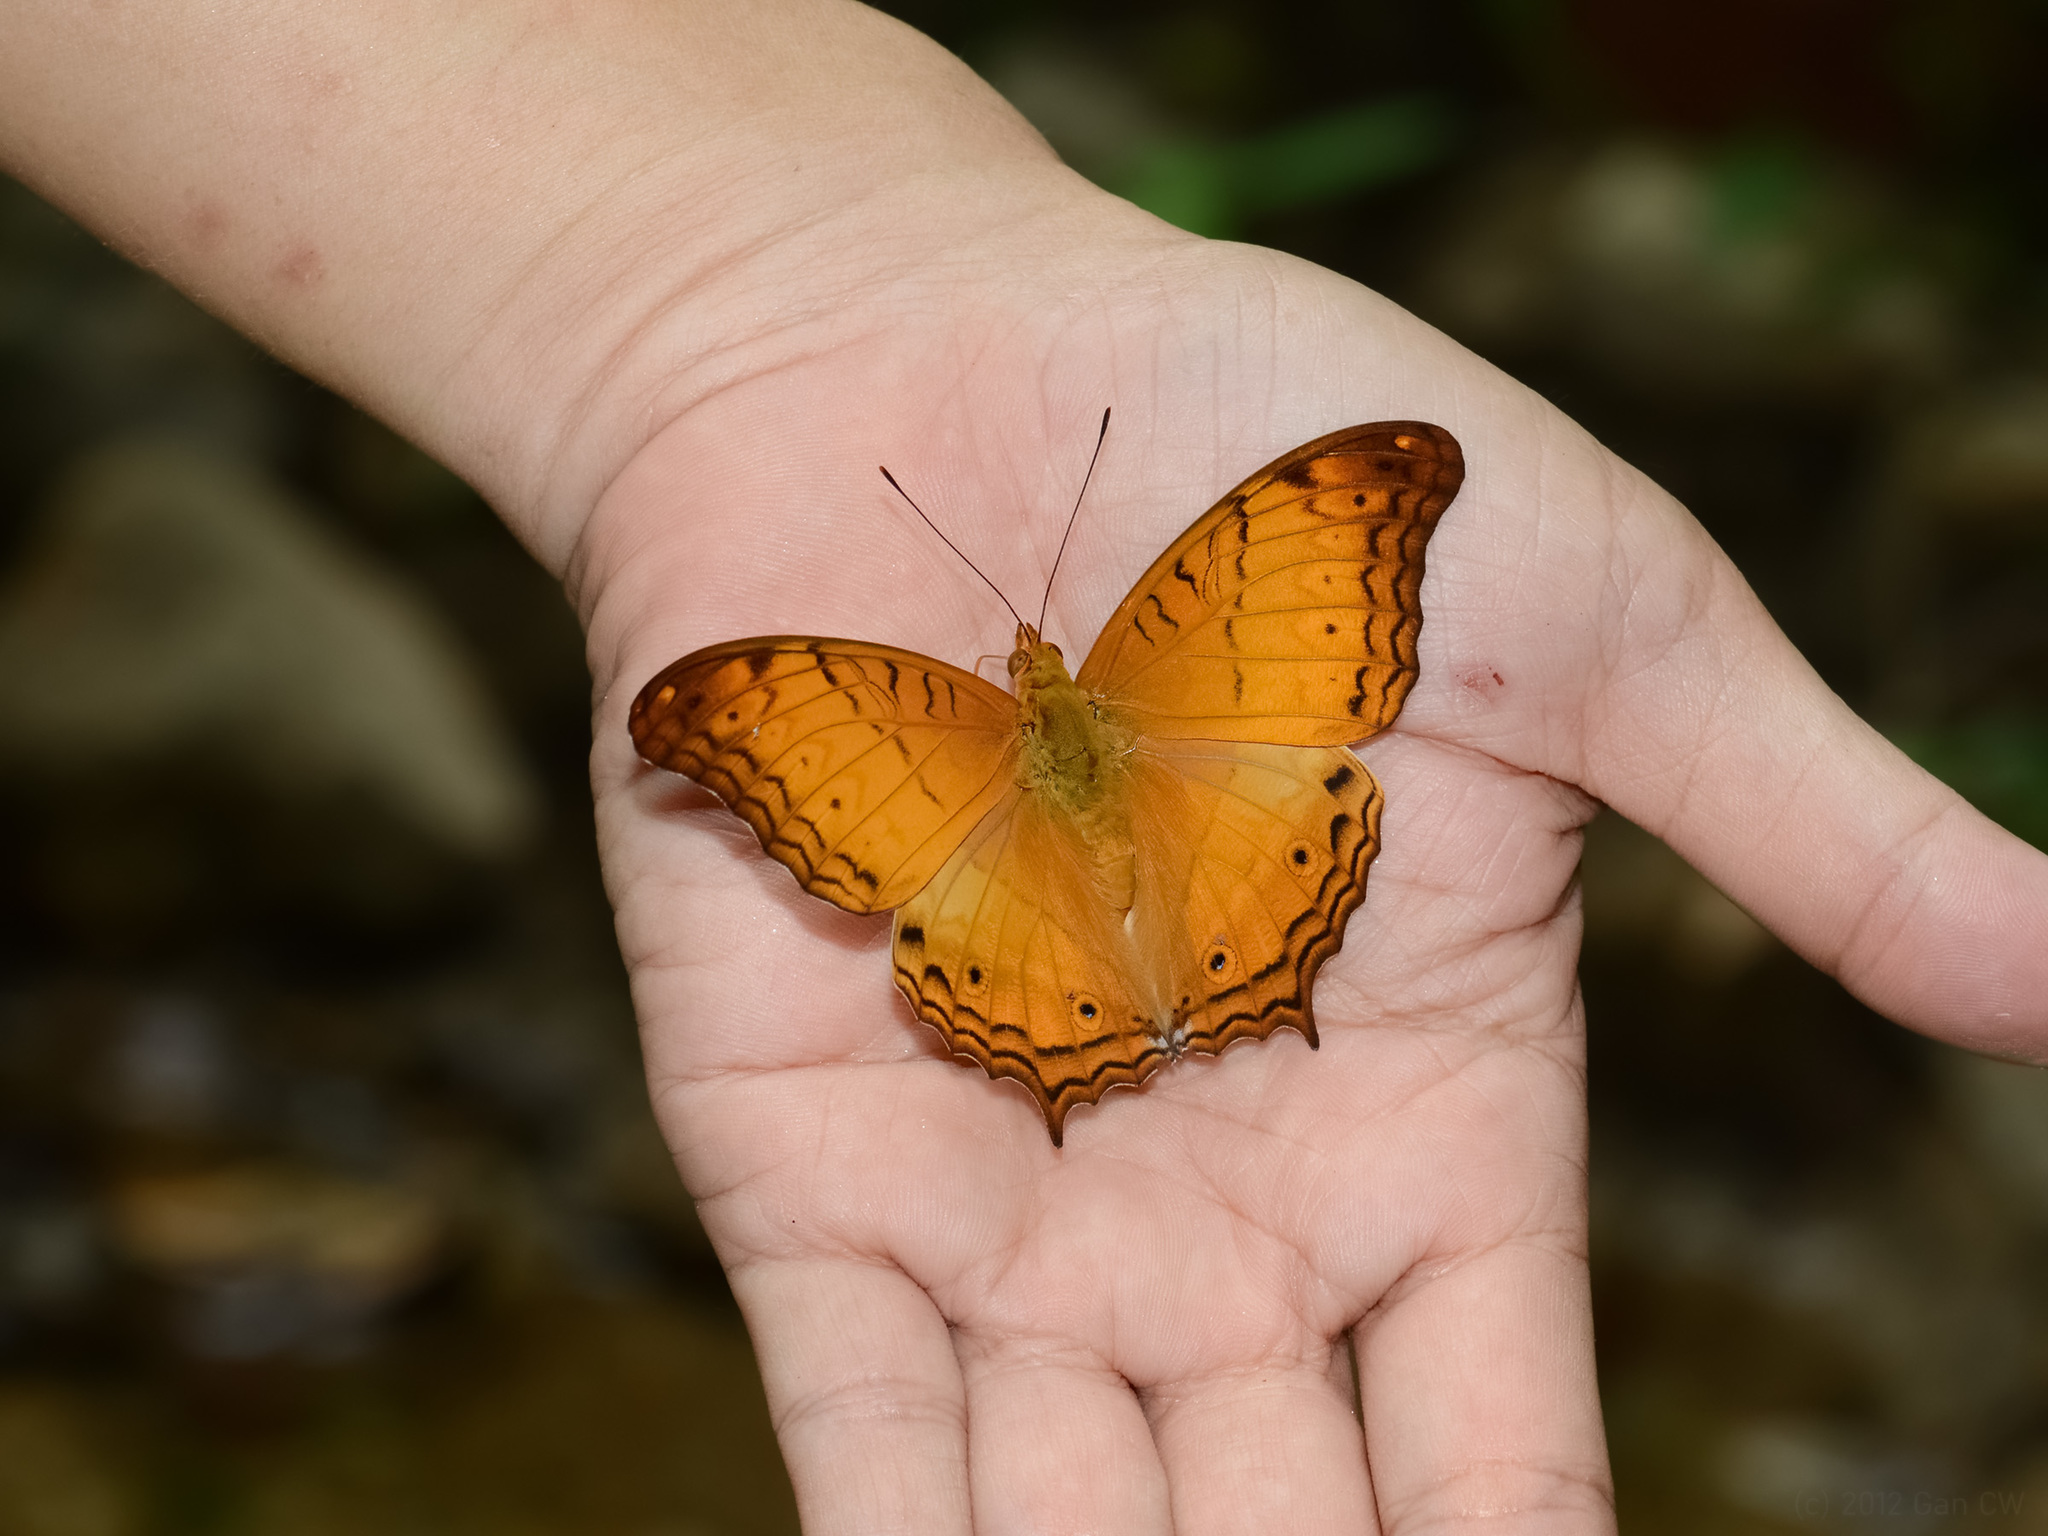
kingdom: Animalia
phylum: Arthropoda
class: Insecta
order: Lepidoptera
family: Nymphalidae
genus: Vindula
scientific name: Vindula deione
